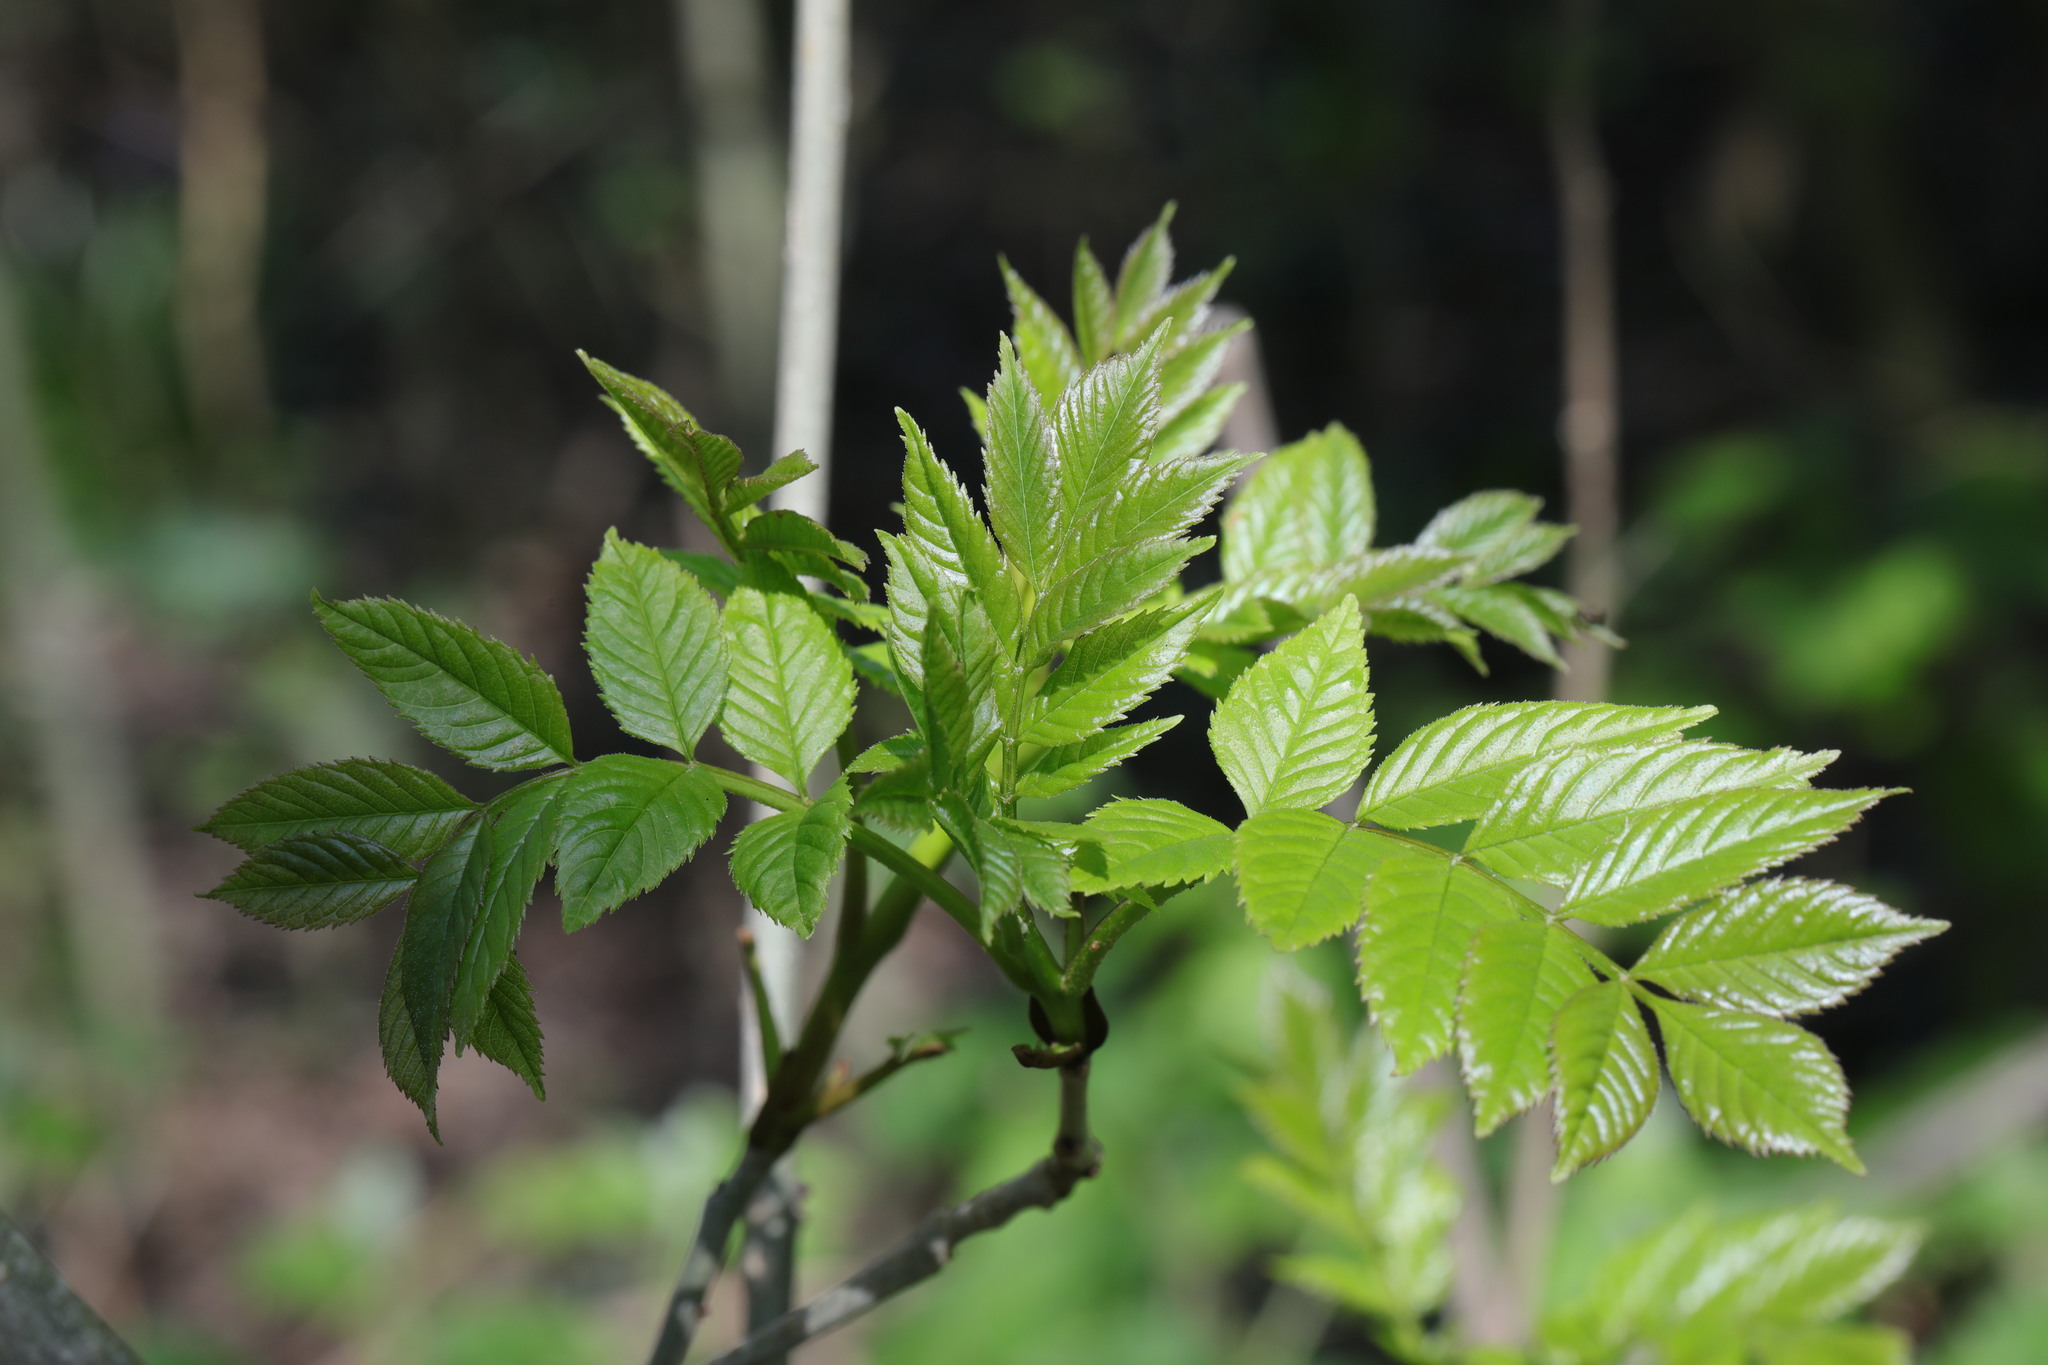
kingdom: Plantae
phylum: Tracheophyta
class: Magnoliopsida
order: Lamiales
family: Oleaceae
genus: Fraxinus
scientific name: Fraxinus excelsior
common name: European ash
